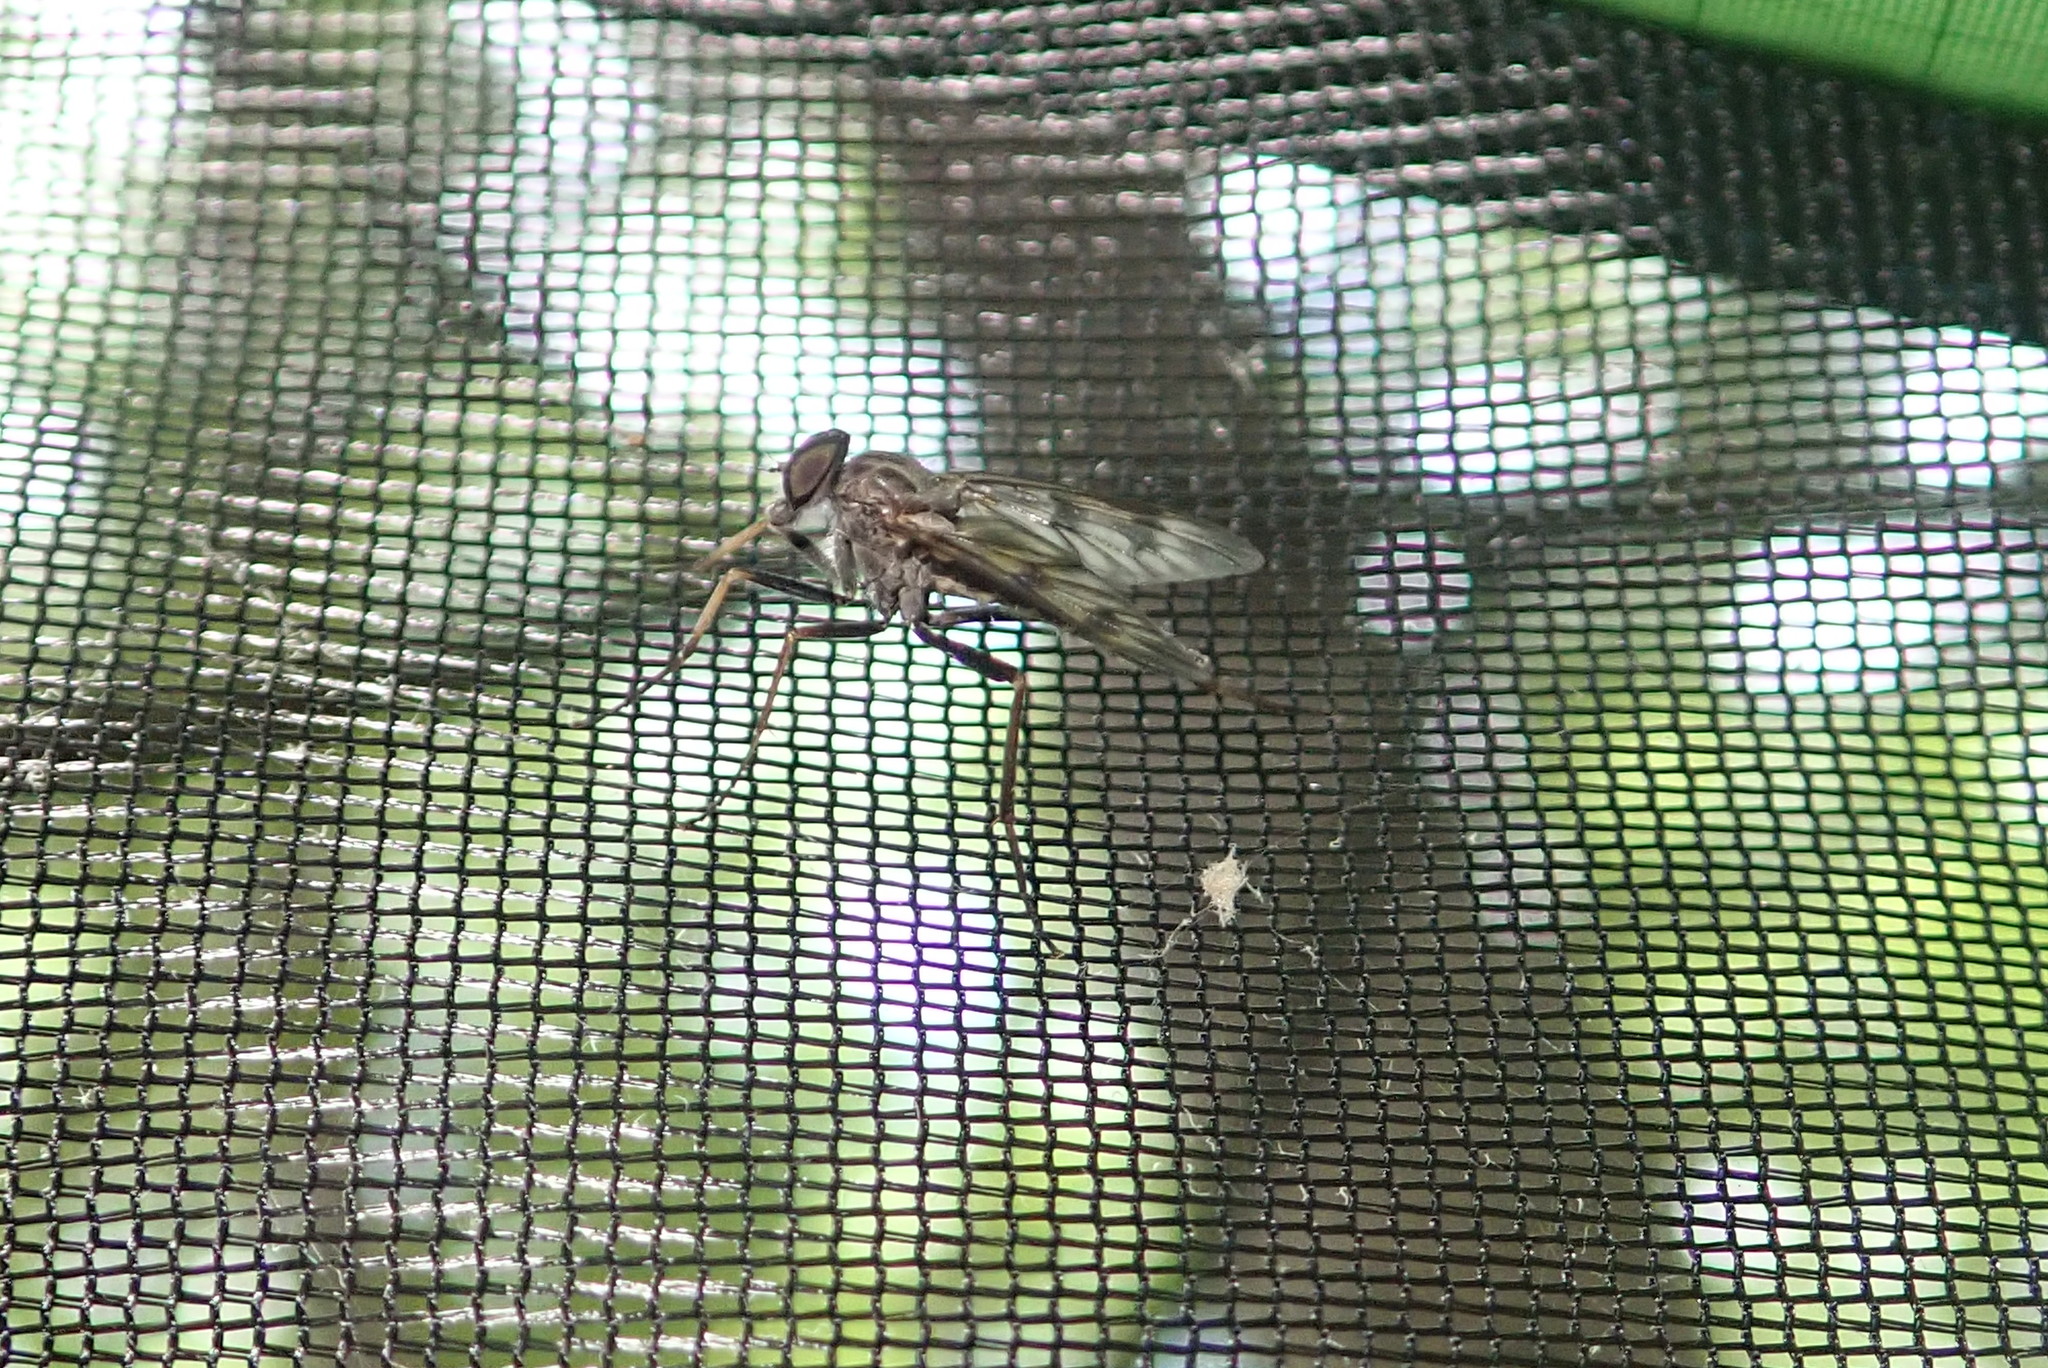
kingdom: Animalia
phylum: Arthropoda
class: Insecta
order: Diptera
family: Rhagionidae
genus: Rhagio
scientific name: Rhagio mystaceus
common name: Common snipe fly
